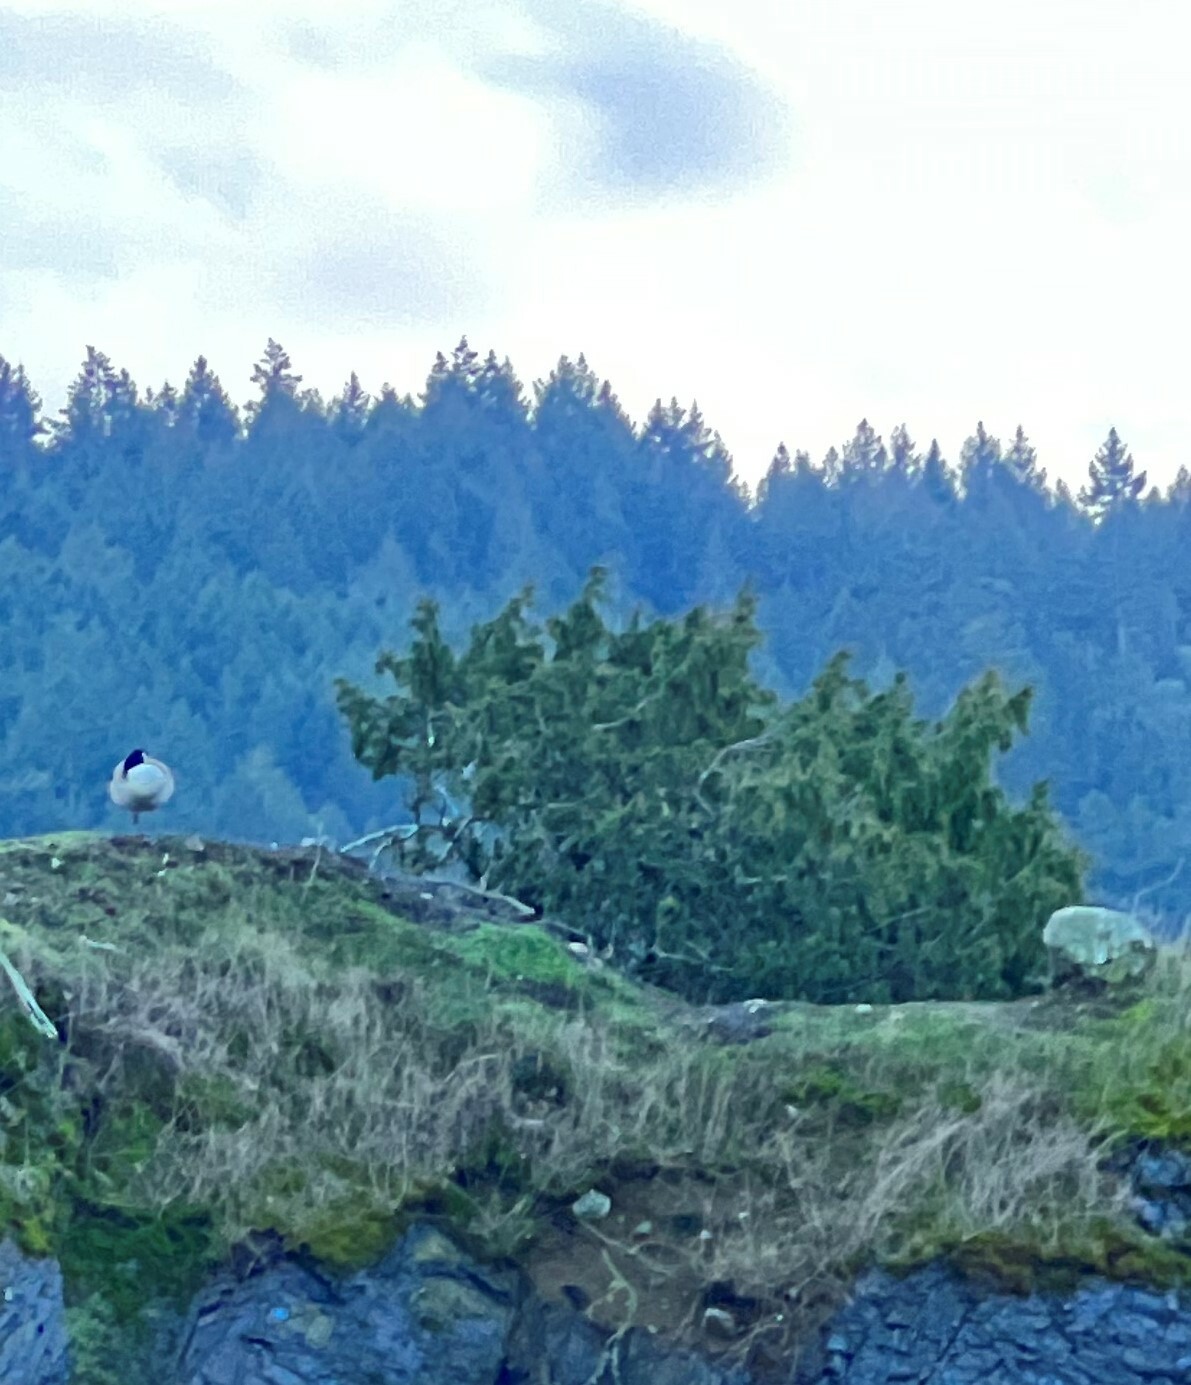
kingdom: Plantae
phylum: Tracheophyta
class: Pinopsida
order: Pinales
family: Cupressaceae
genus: Juniperus
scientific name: Juniperus scopulorum
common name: Rocky mountain juniper
